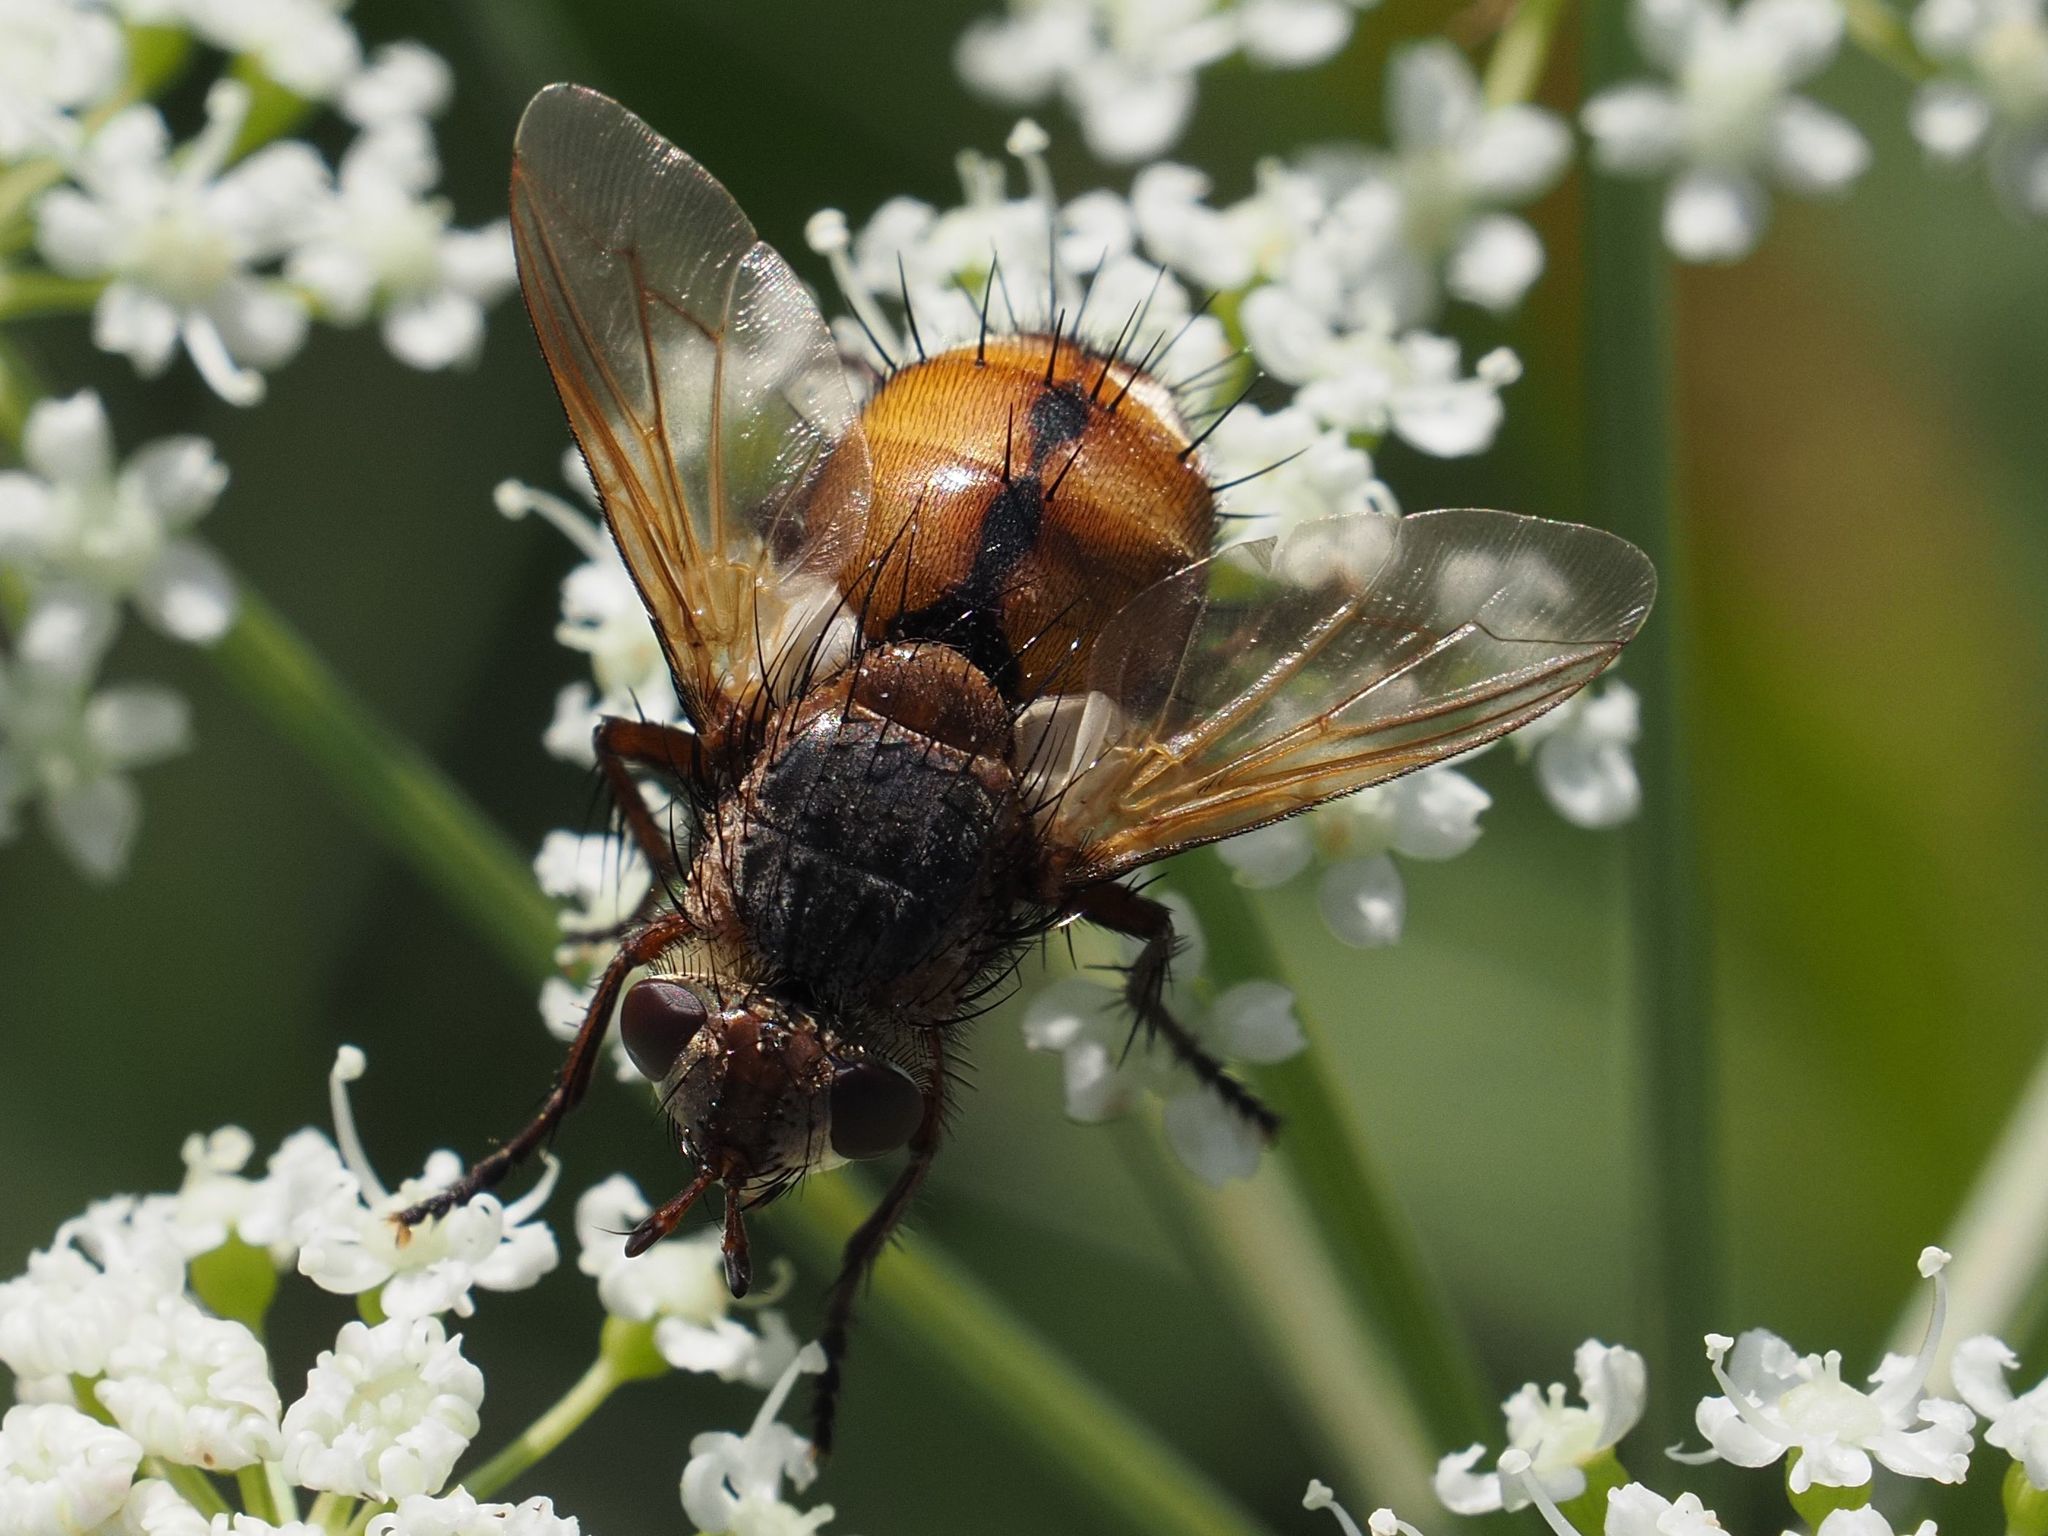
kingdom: Animalia
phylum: Arthropoda
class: Insecta
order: Diptera
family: Tachinidae
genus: Tachina
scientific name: Tachina fera
